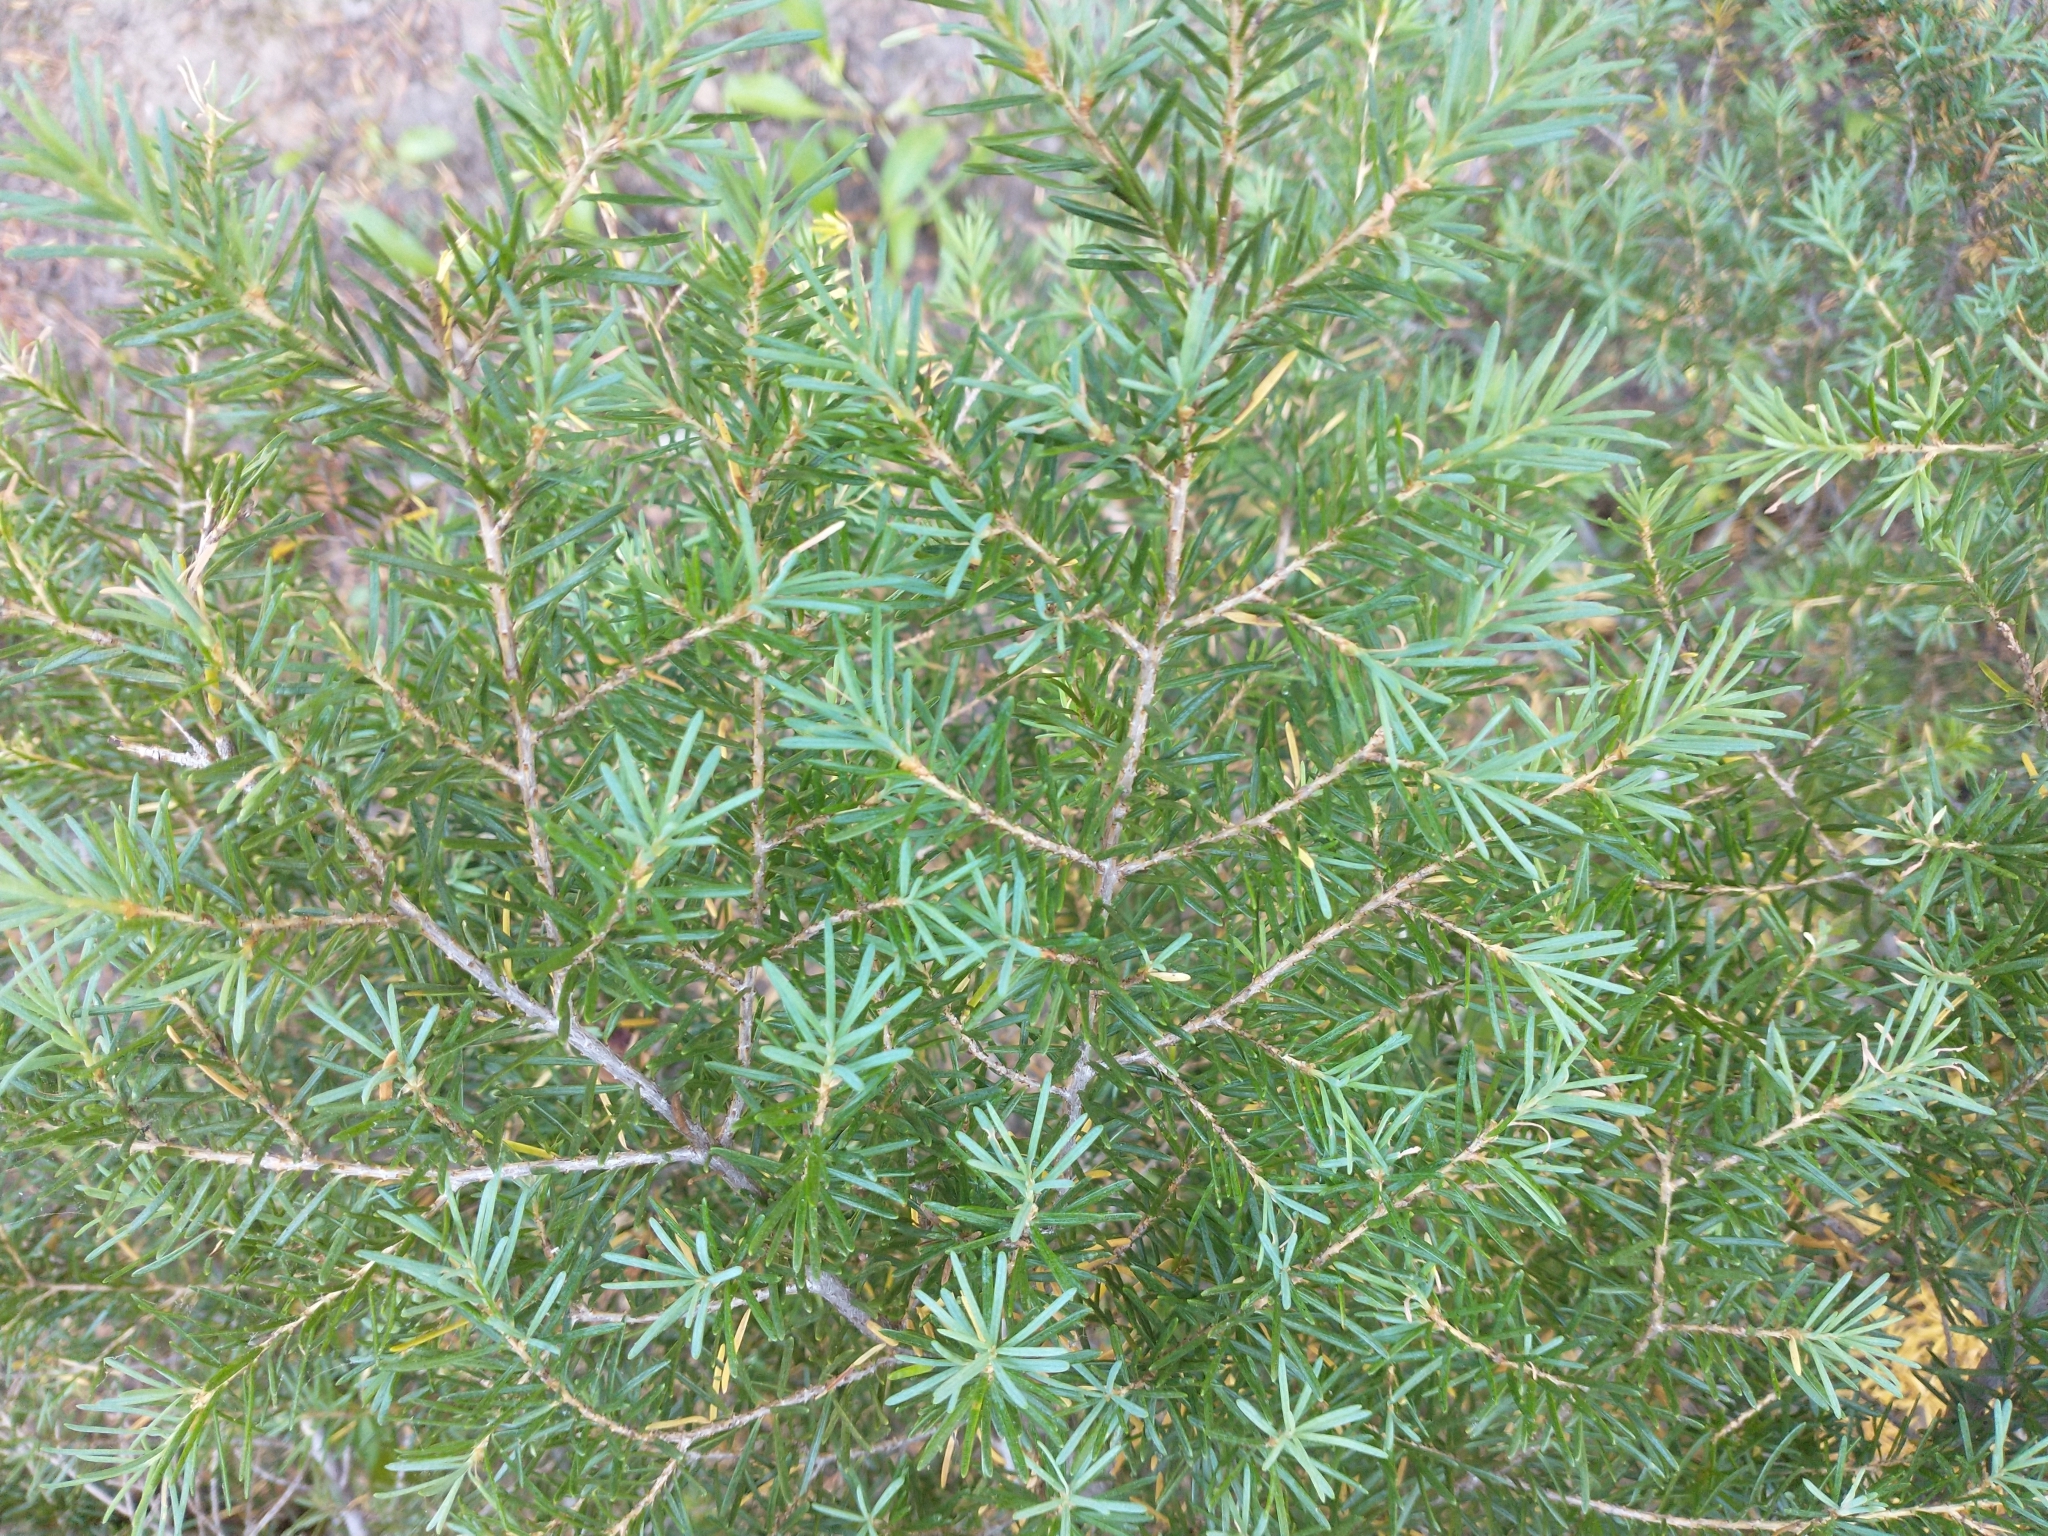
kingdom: Plantae
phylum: Tracheophyta
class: Pinopsida
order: Pinales
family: Pinaceae
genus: Tsuga
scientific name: Tsuga mertensiana
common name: Mountain hemlock
